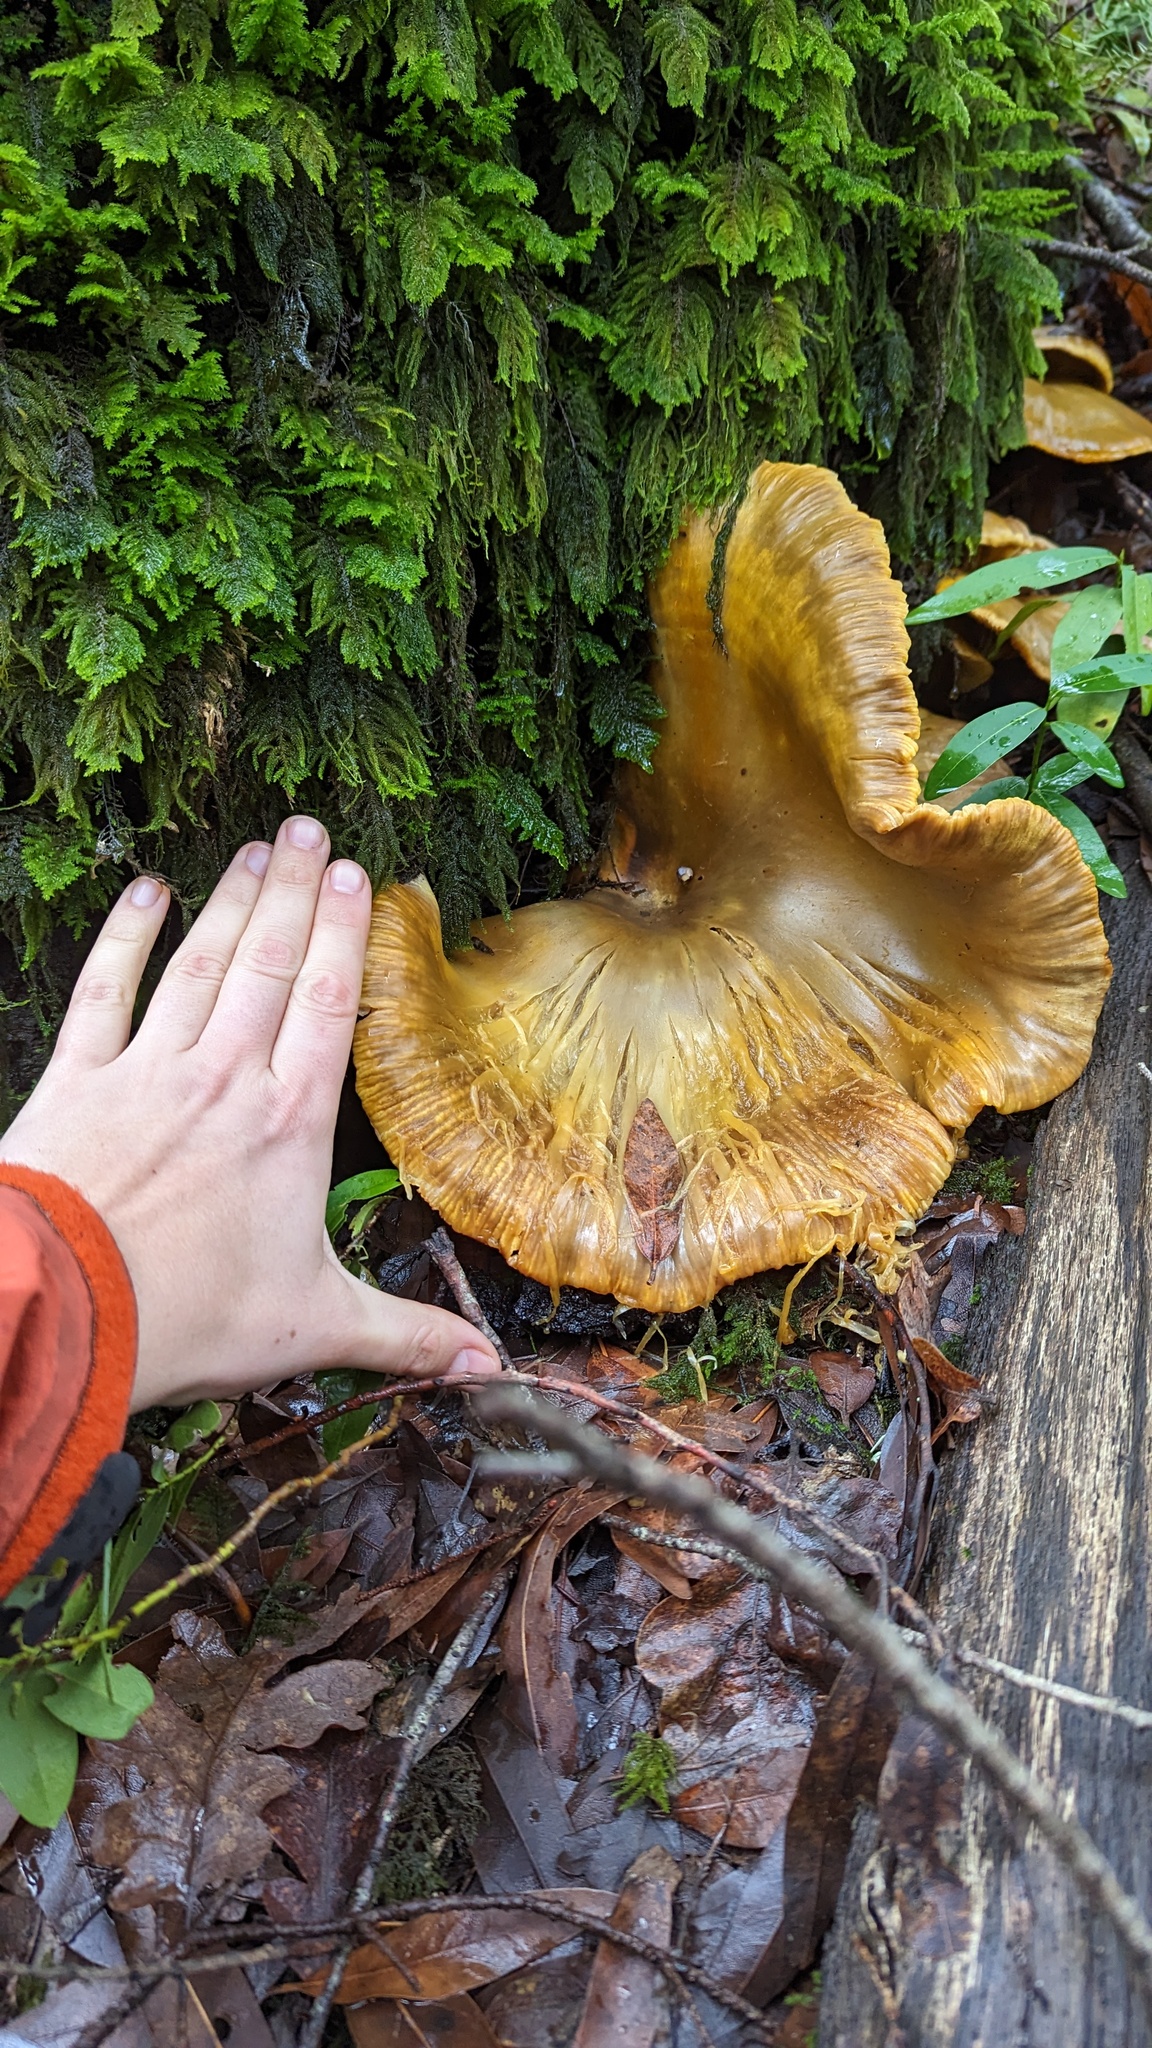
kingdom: Fungi
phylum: Basidiomycota
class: Agaricomycetes
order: Agaricales
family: Omphalotaceae
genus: Omphalotus
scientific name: Omphalotus olivascens
